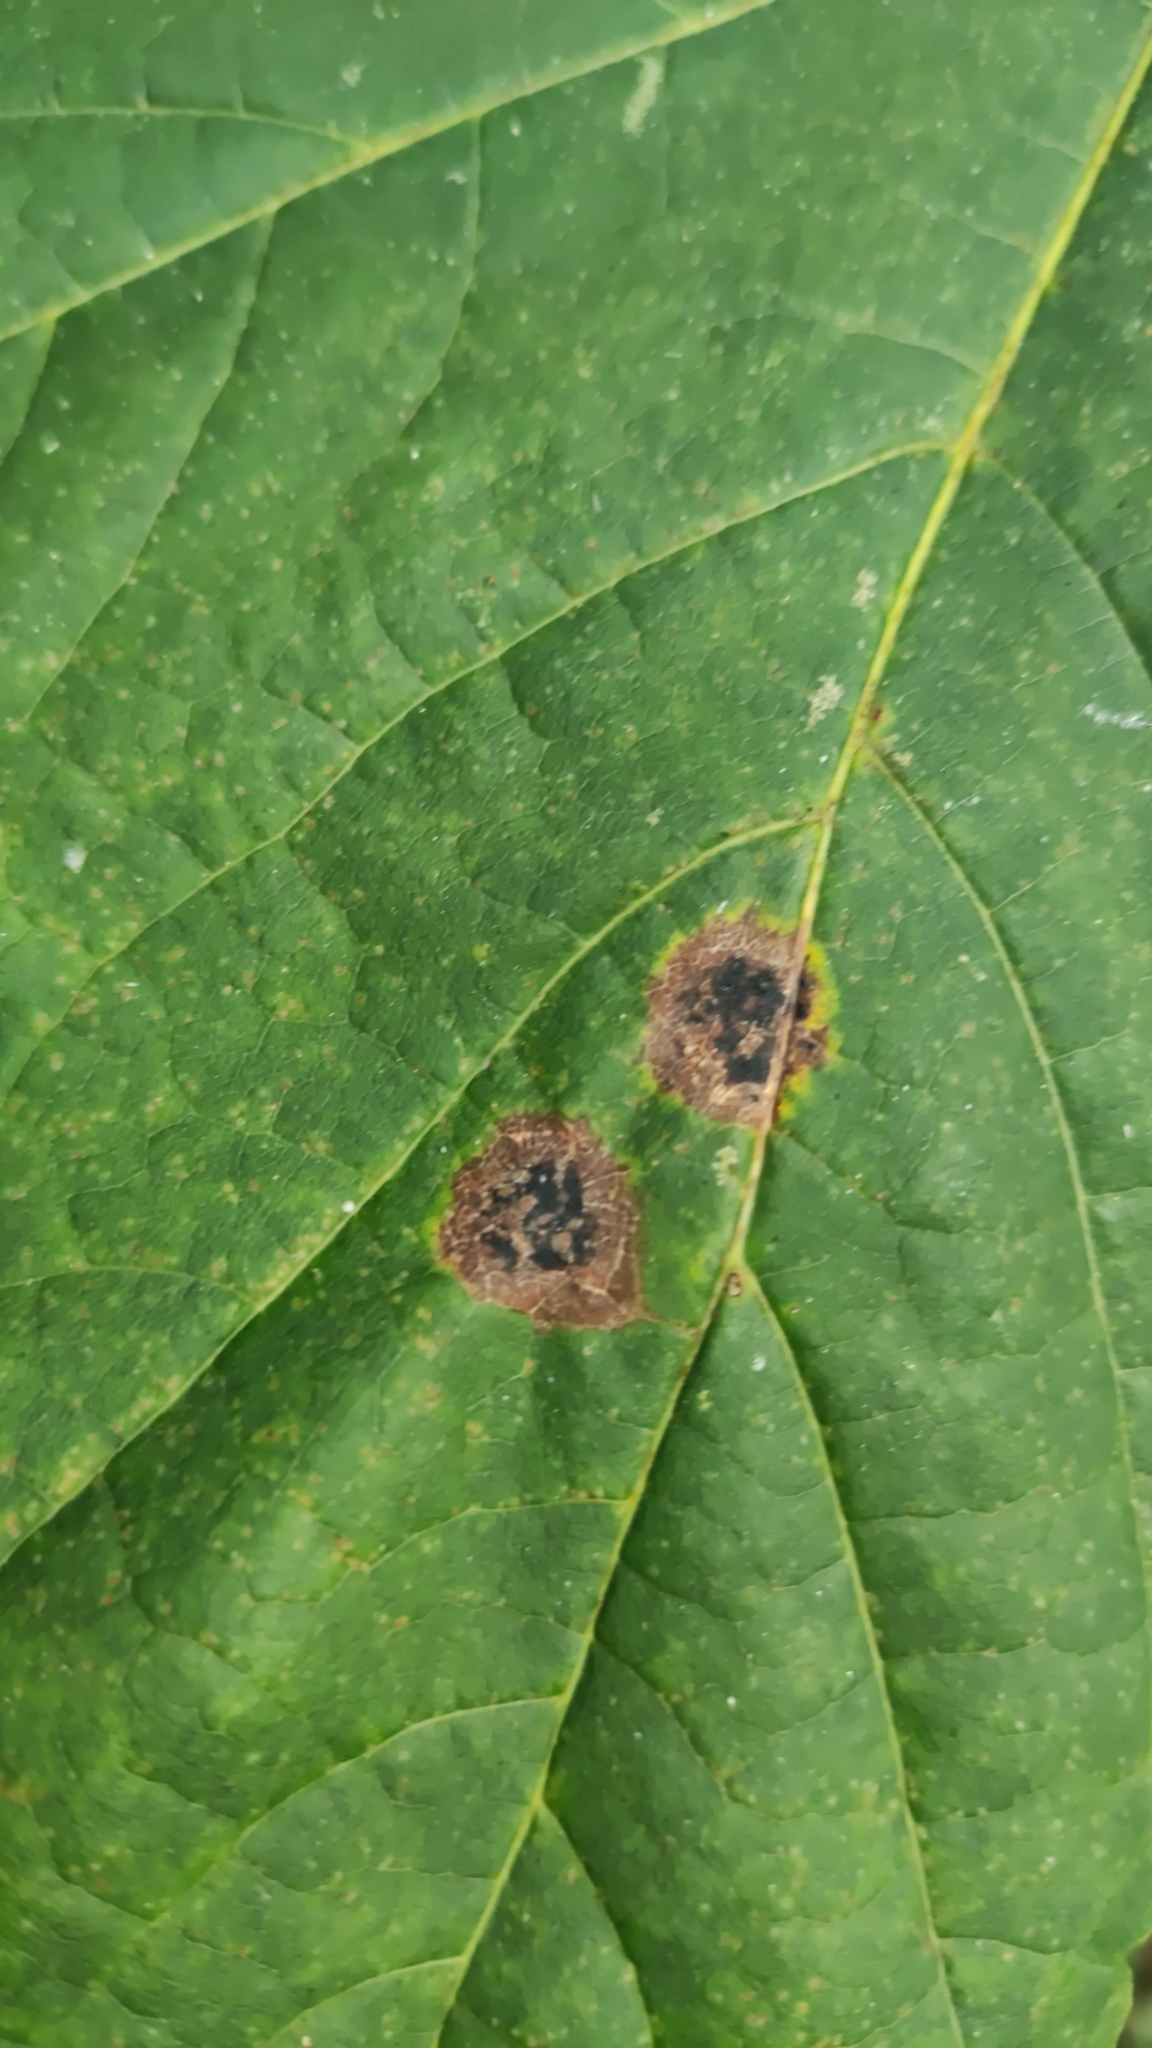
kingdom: Fungi
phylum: Ascomycota
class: Leotiomycetes
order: Rhytismatales
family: Rhytismataceae
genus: Rhytisma
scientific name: Rhytisma acerinum
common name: European tar spot
